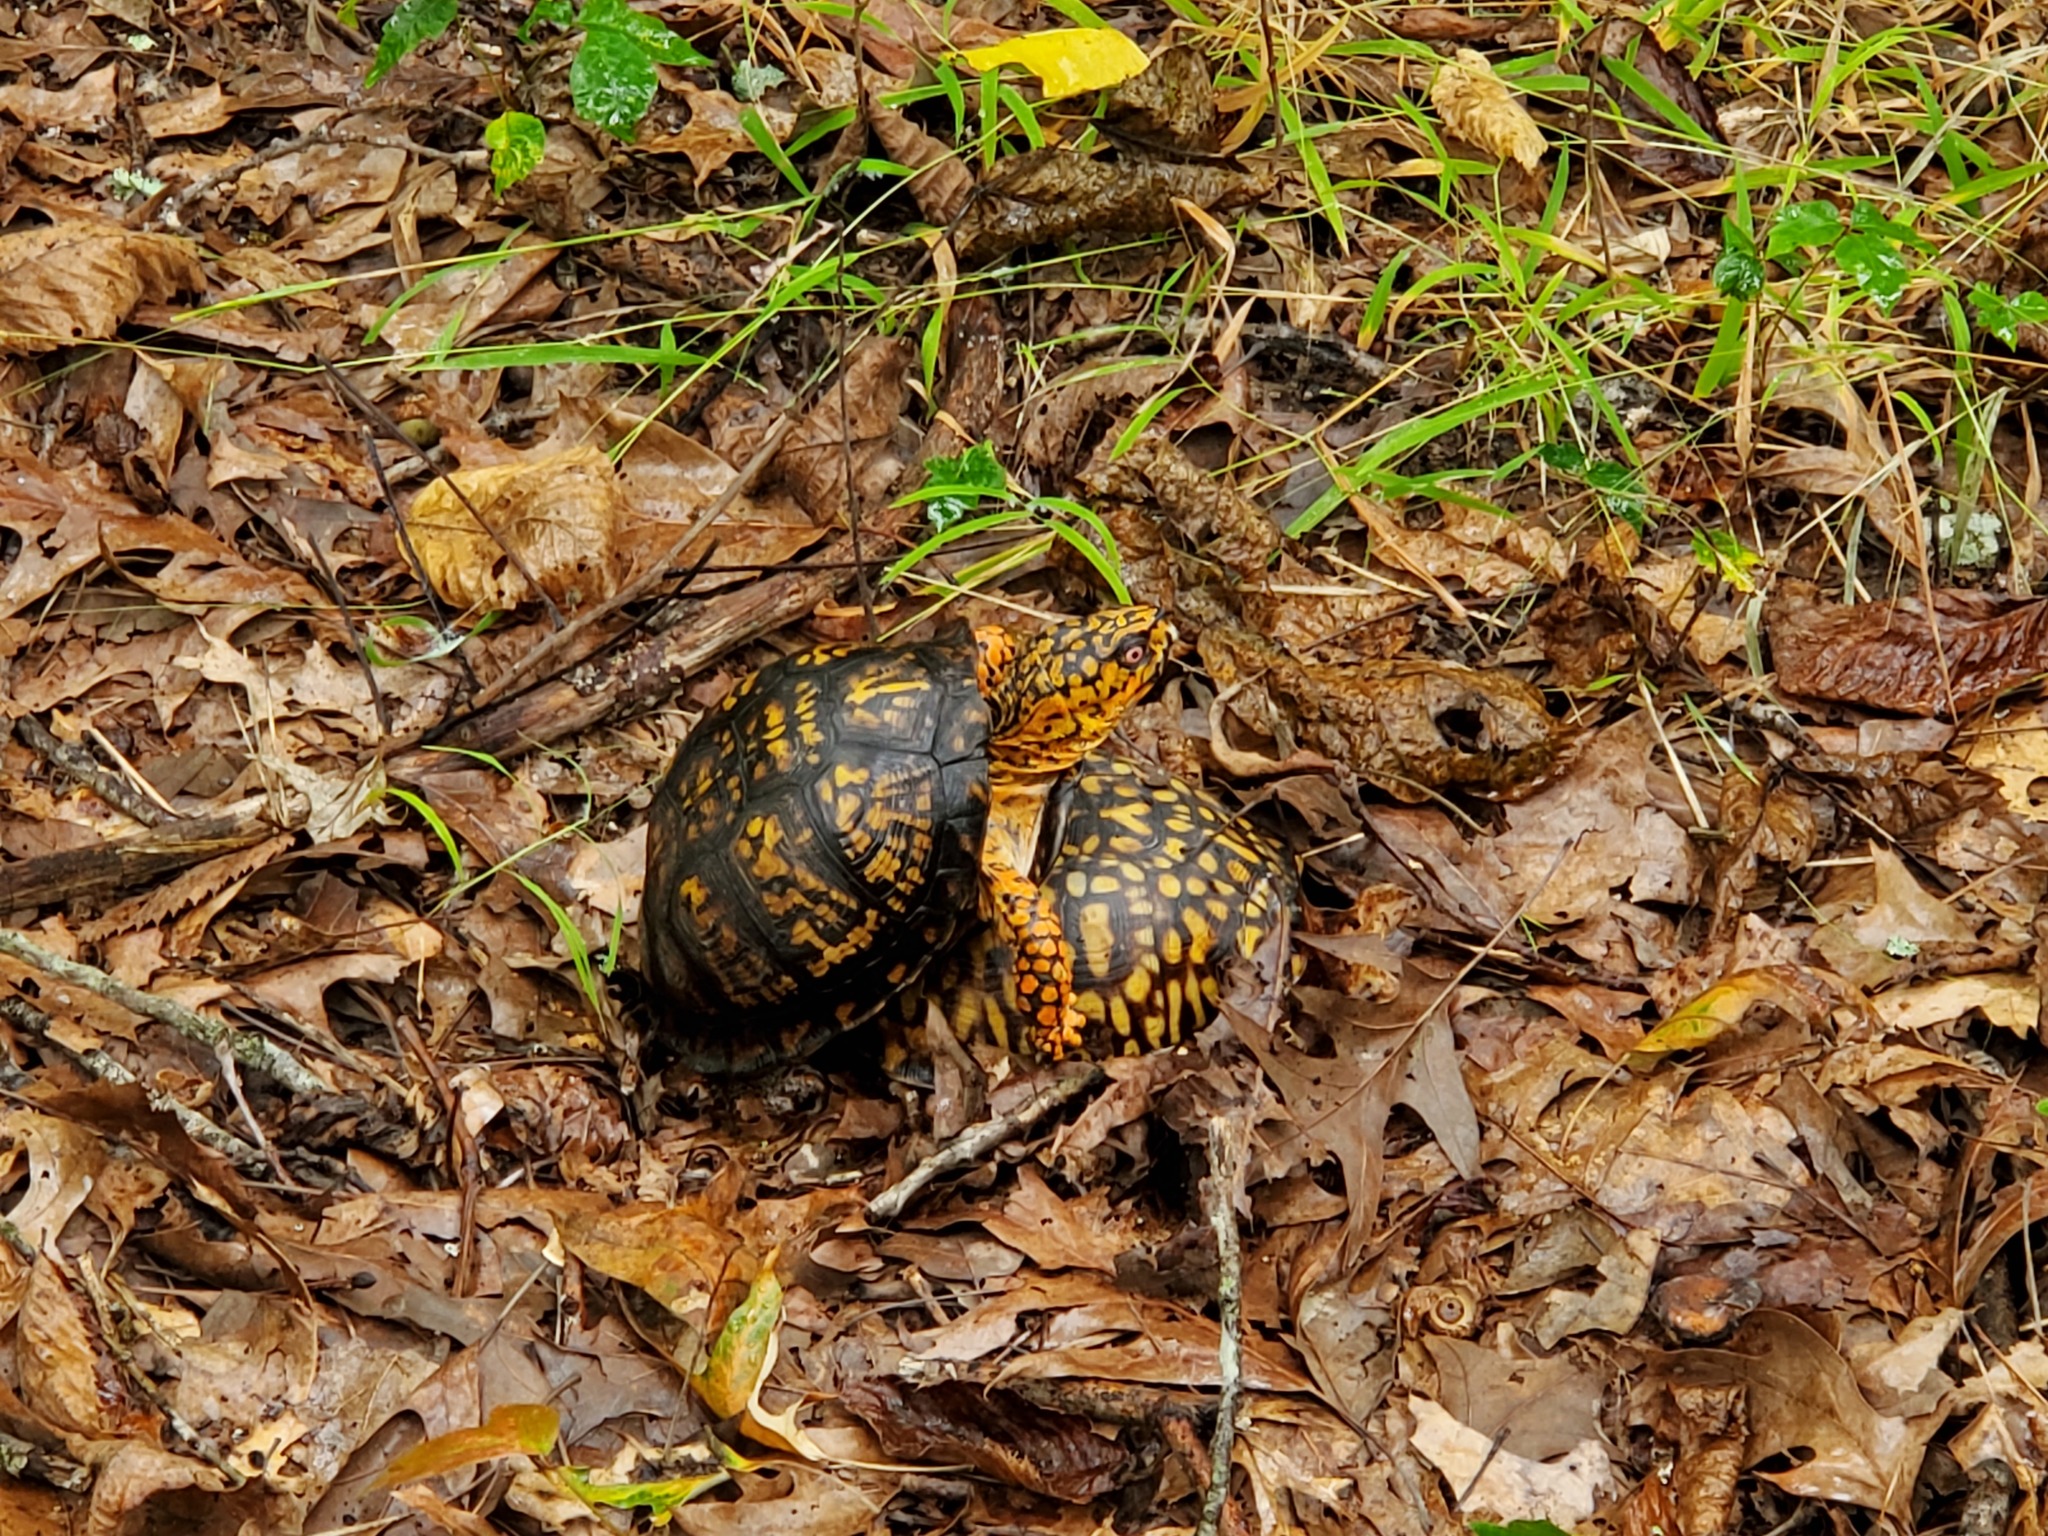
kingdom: Animalia
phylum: Chordata
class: Testudines
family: Emydidae
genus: Terrapene
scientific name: Terrapene carolina
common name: Common box turtle
